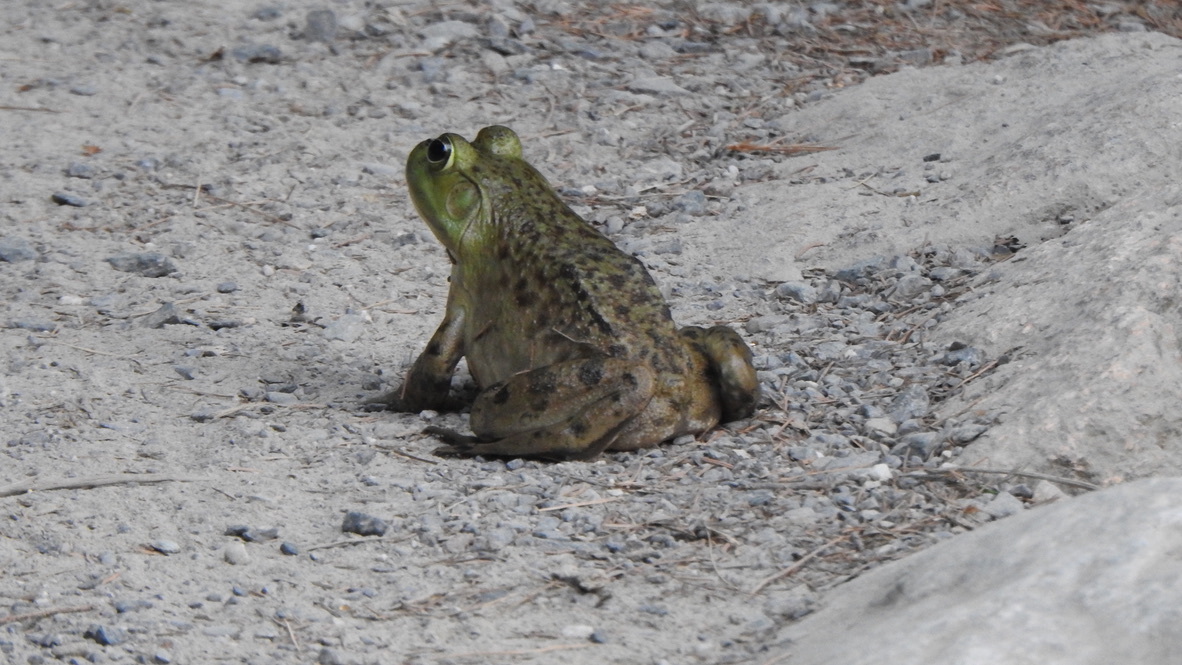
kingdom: Animalia
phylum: Chordata
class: Amphibia
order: Anura
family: Ranidae
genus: Lithobates
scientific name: Lithobates catesbeianus
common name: American bullfrog
